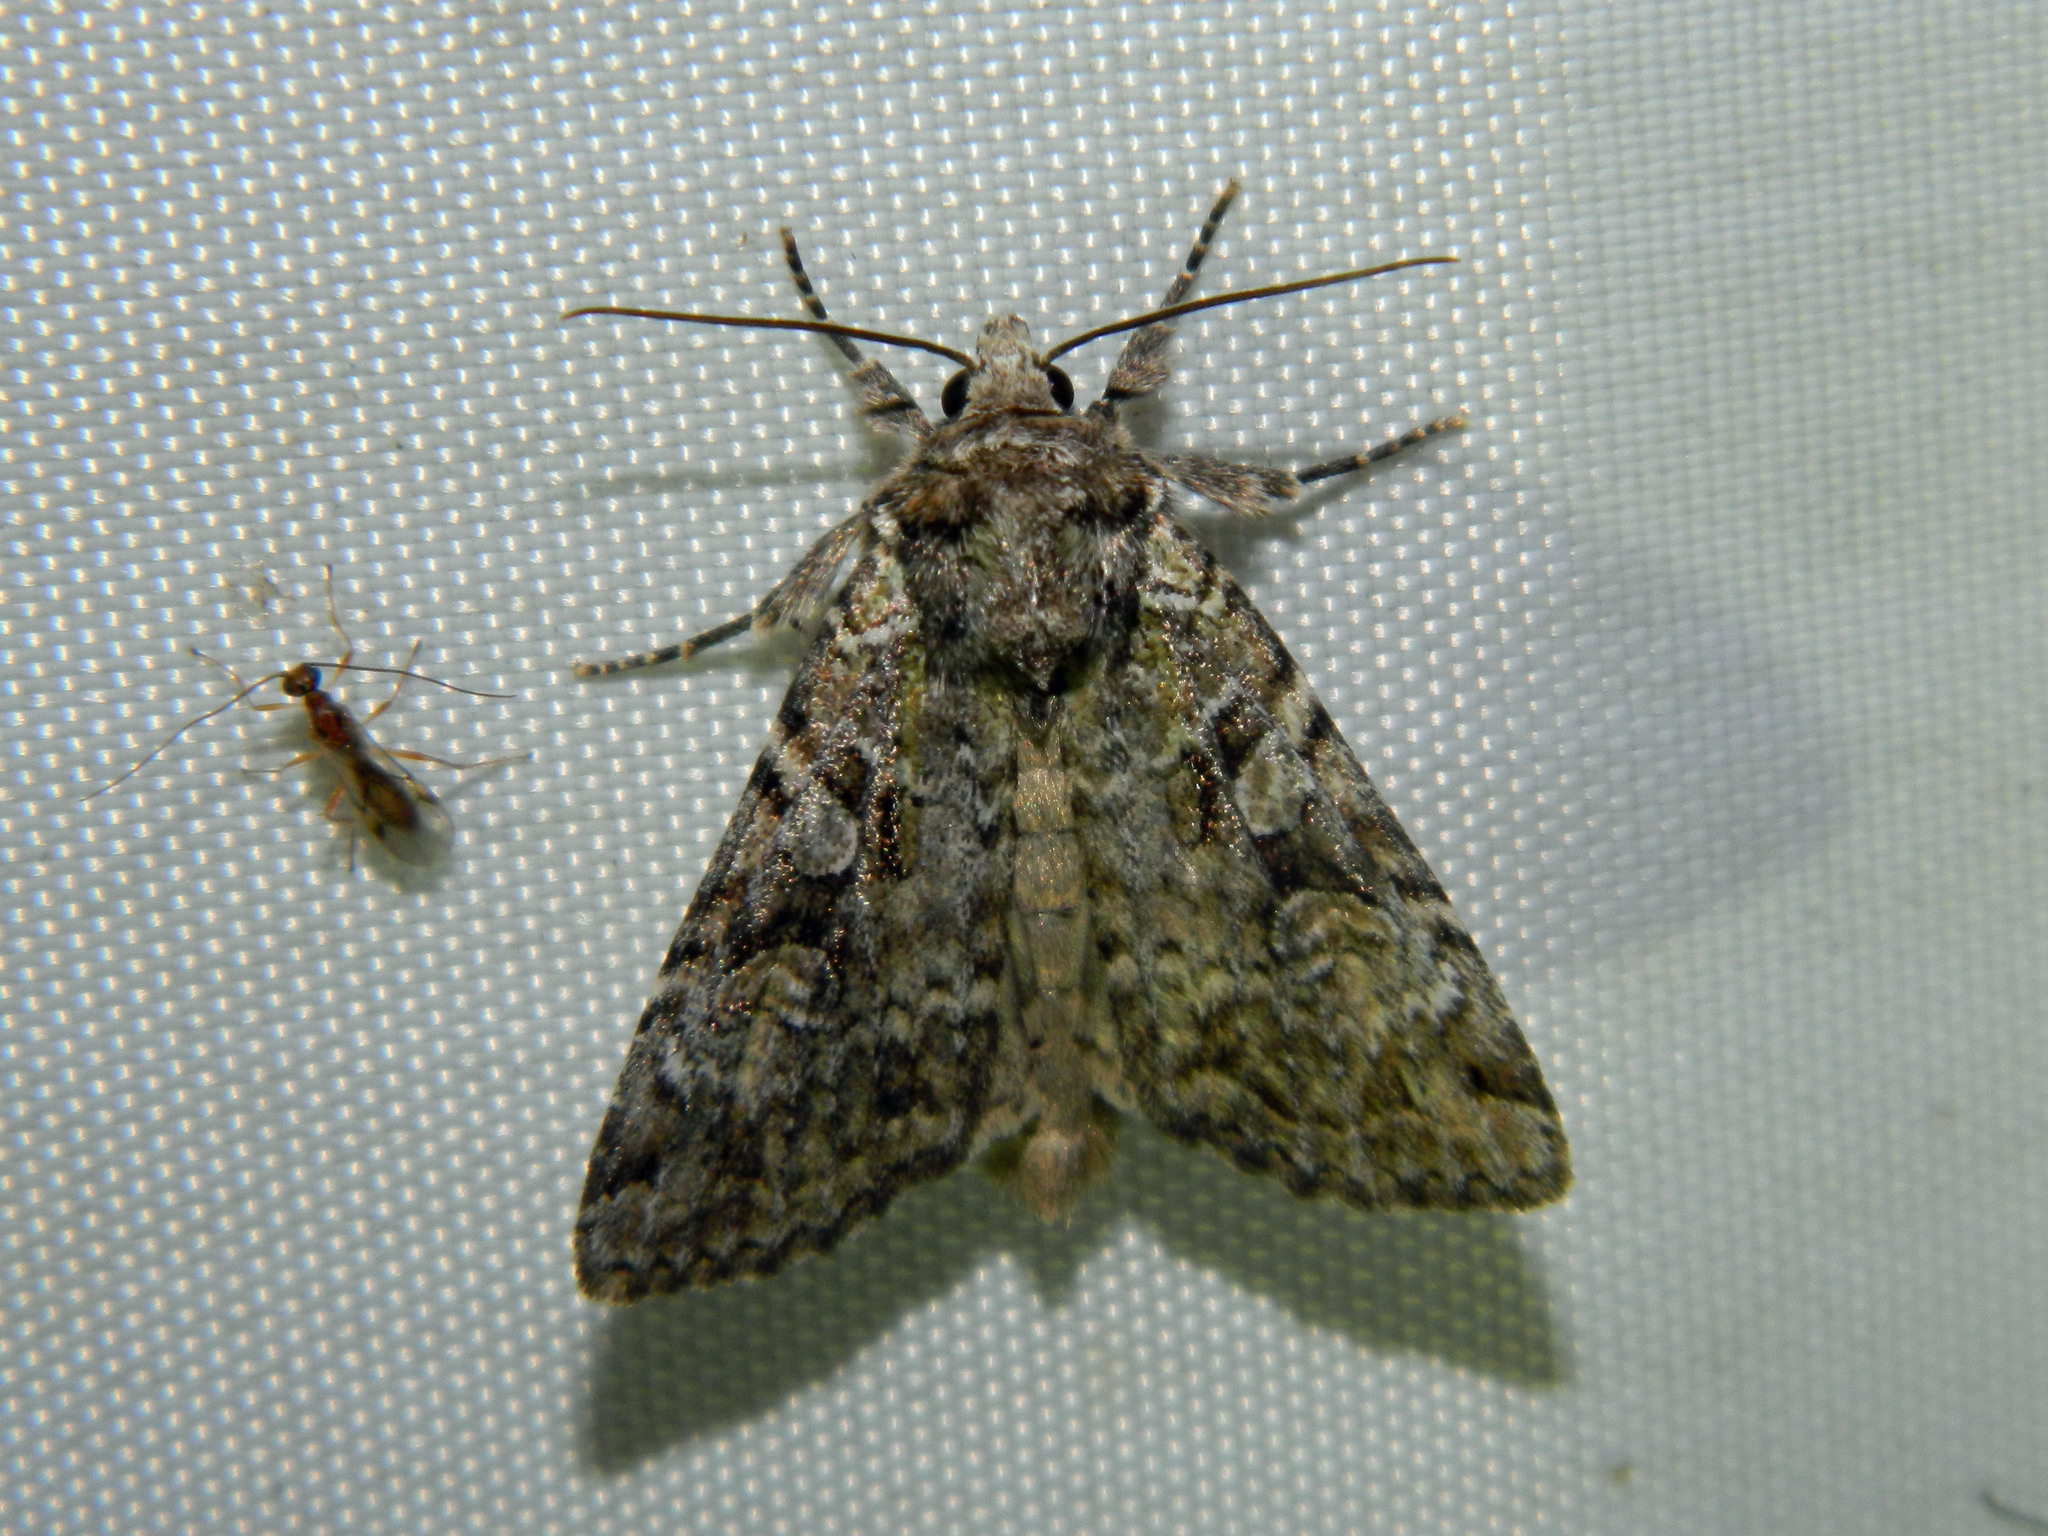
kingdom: Animalia
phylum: Arthropoda
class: Insecta
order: Lepidoptera
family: Noctuidae
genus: Anaplectoides
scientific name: Anaplectoides pressus
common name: Dappled dart
